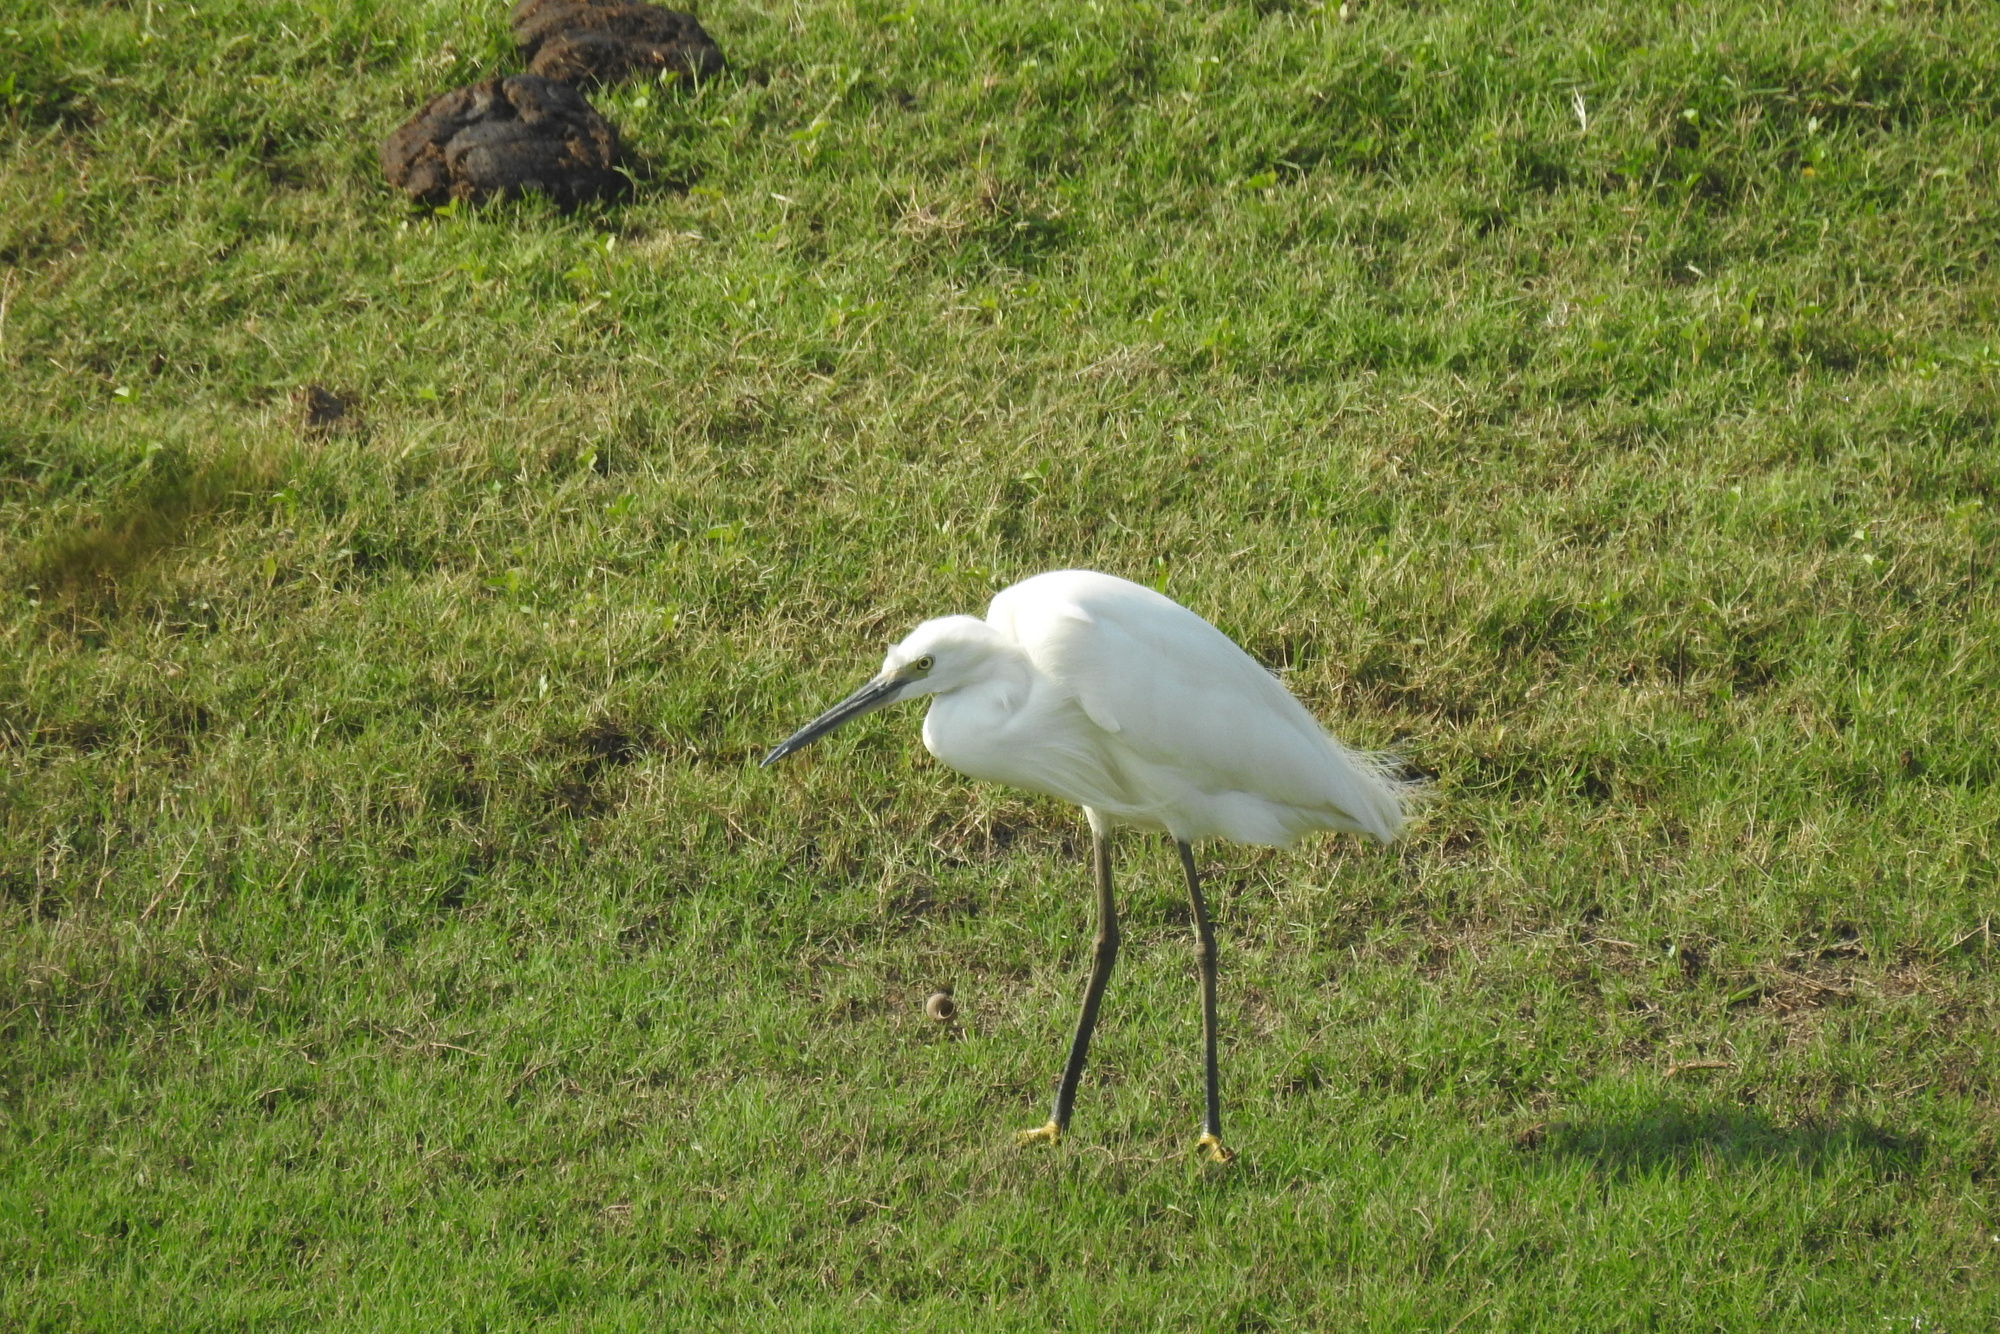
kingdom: Animalia
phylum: Chordata
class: Aves
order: Pelecaniformes
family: Ardeidae
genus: Egretta
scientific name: Egretta garzetta
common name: Little egret
